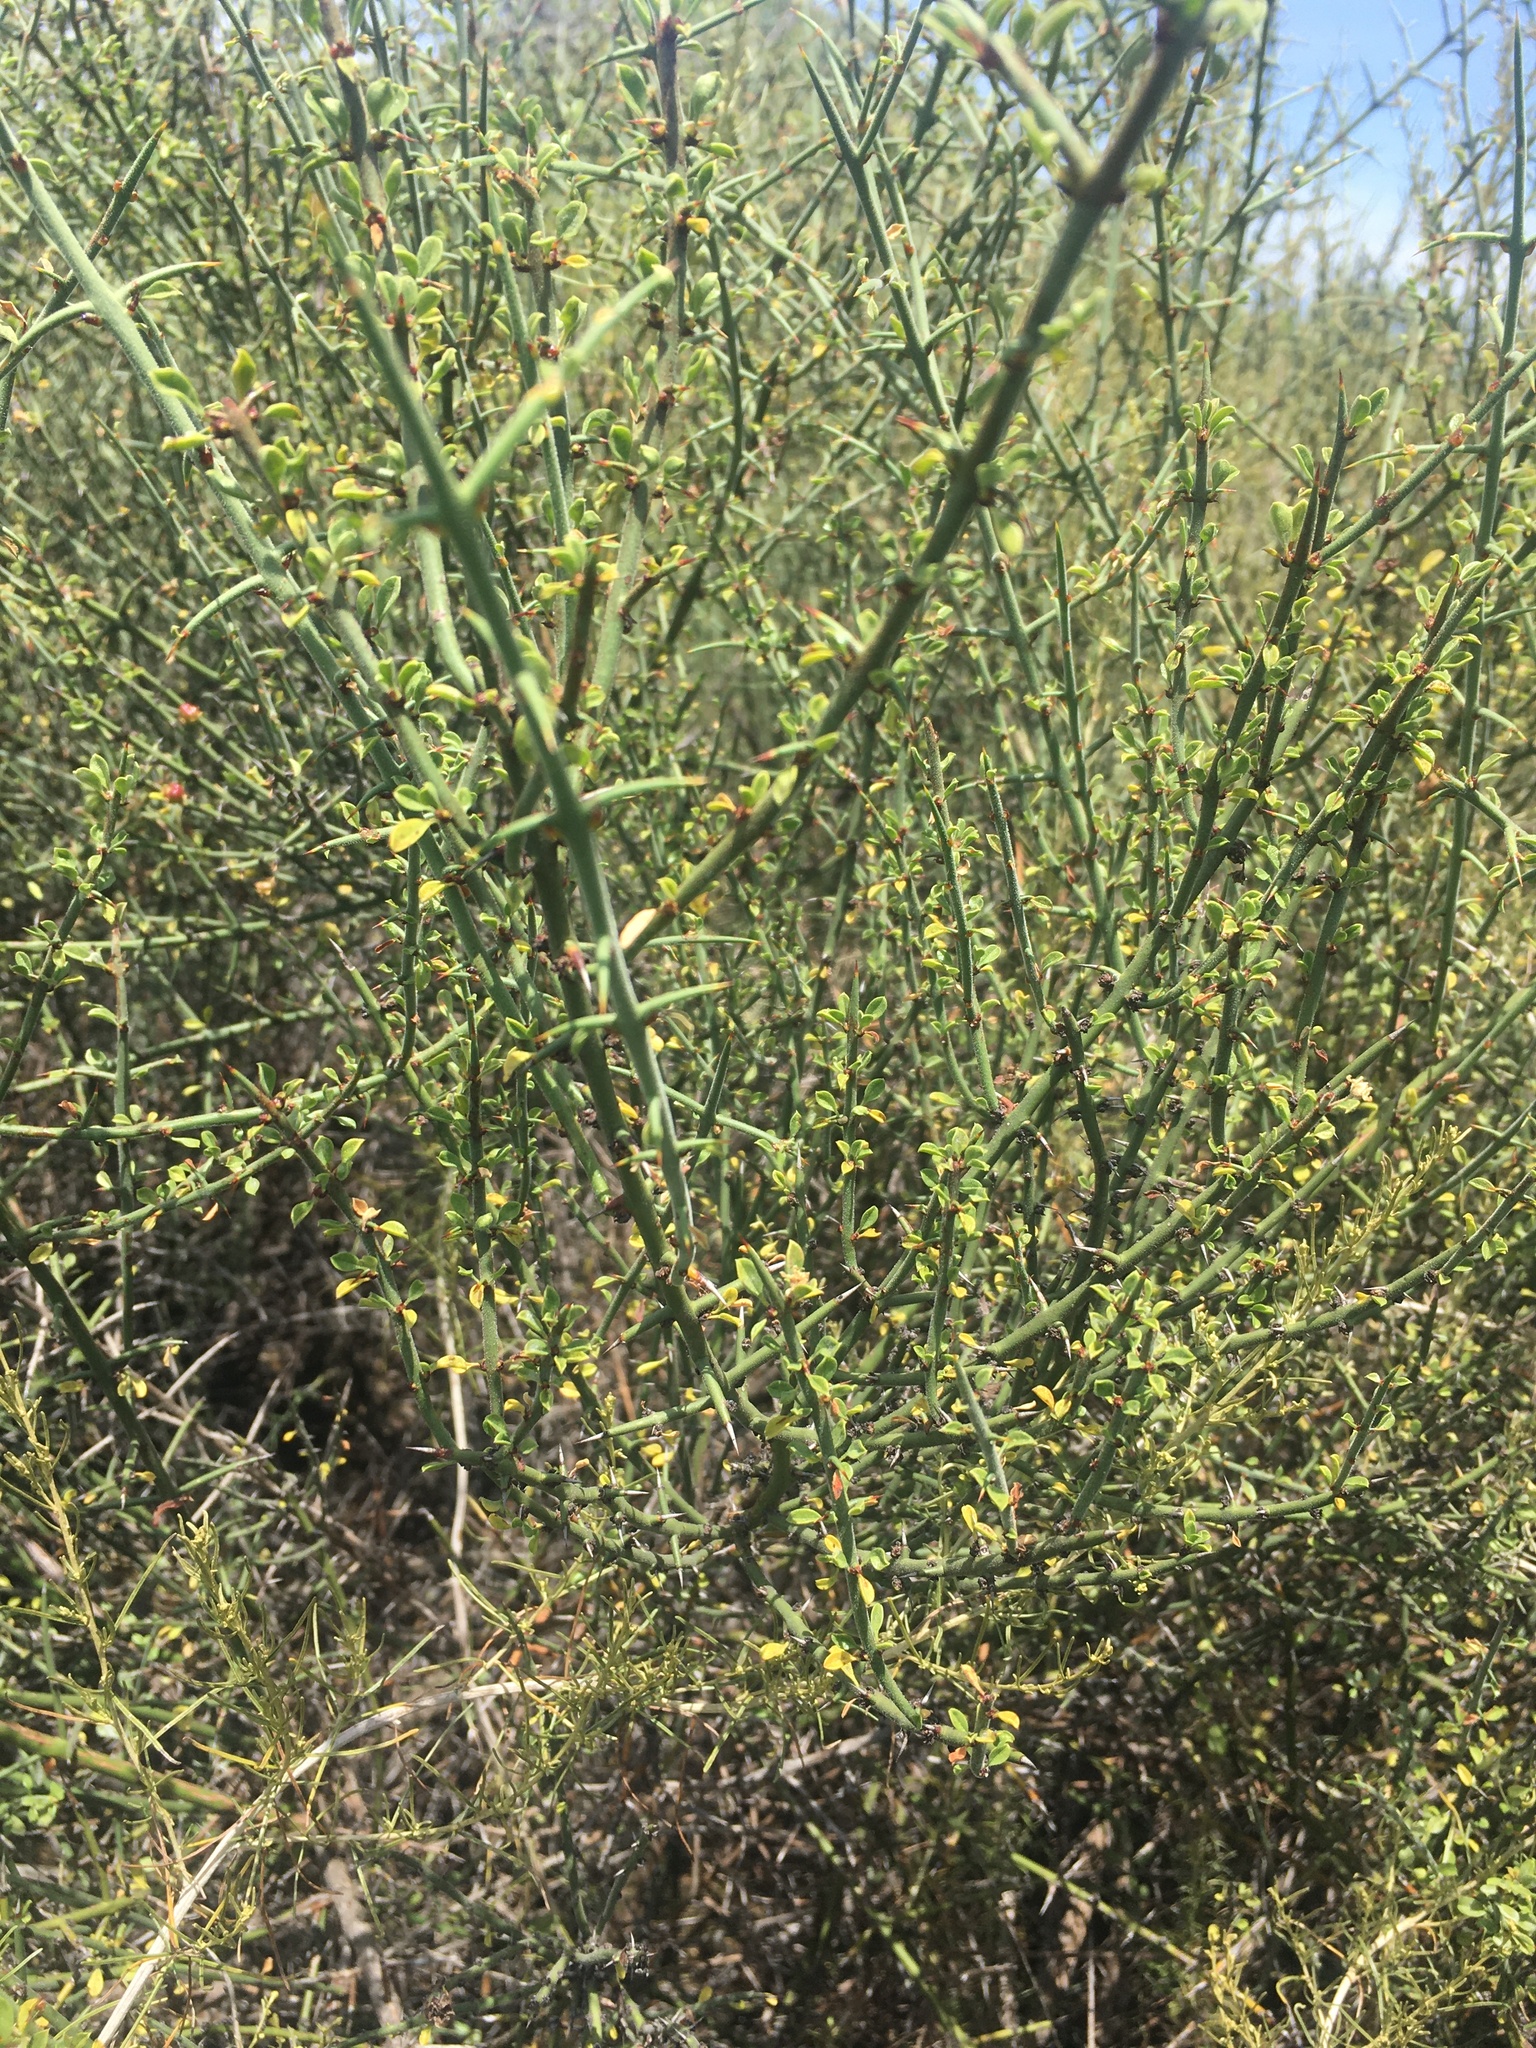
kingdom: Plantae
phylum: Tracheophyta
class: Magnoliopsida
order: Rosales
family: Rhamnaceae
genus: Adolphia
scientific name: Adolphia californica
